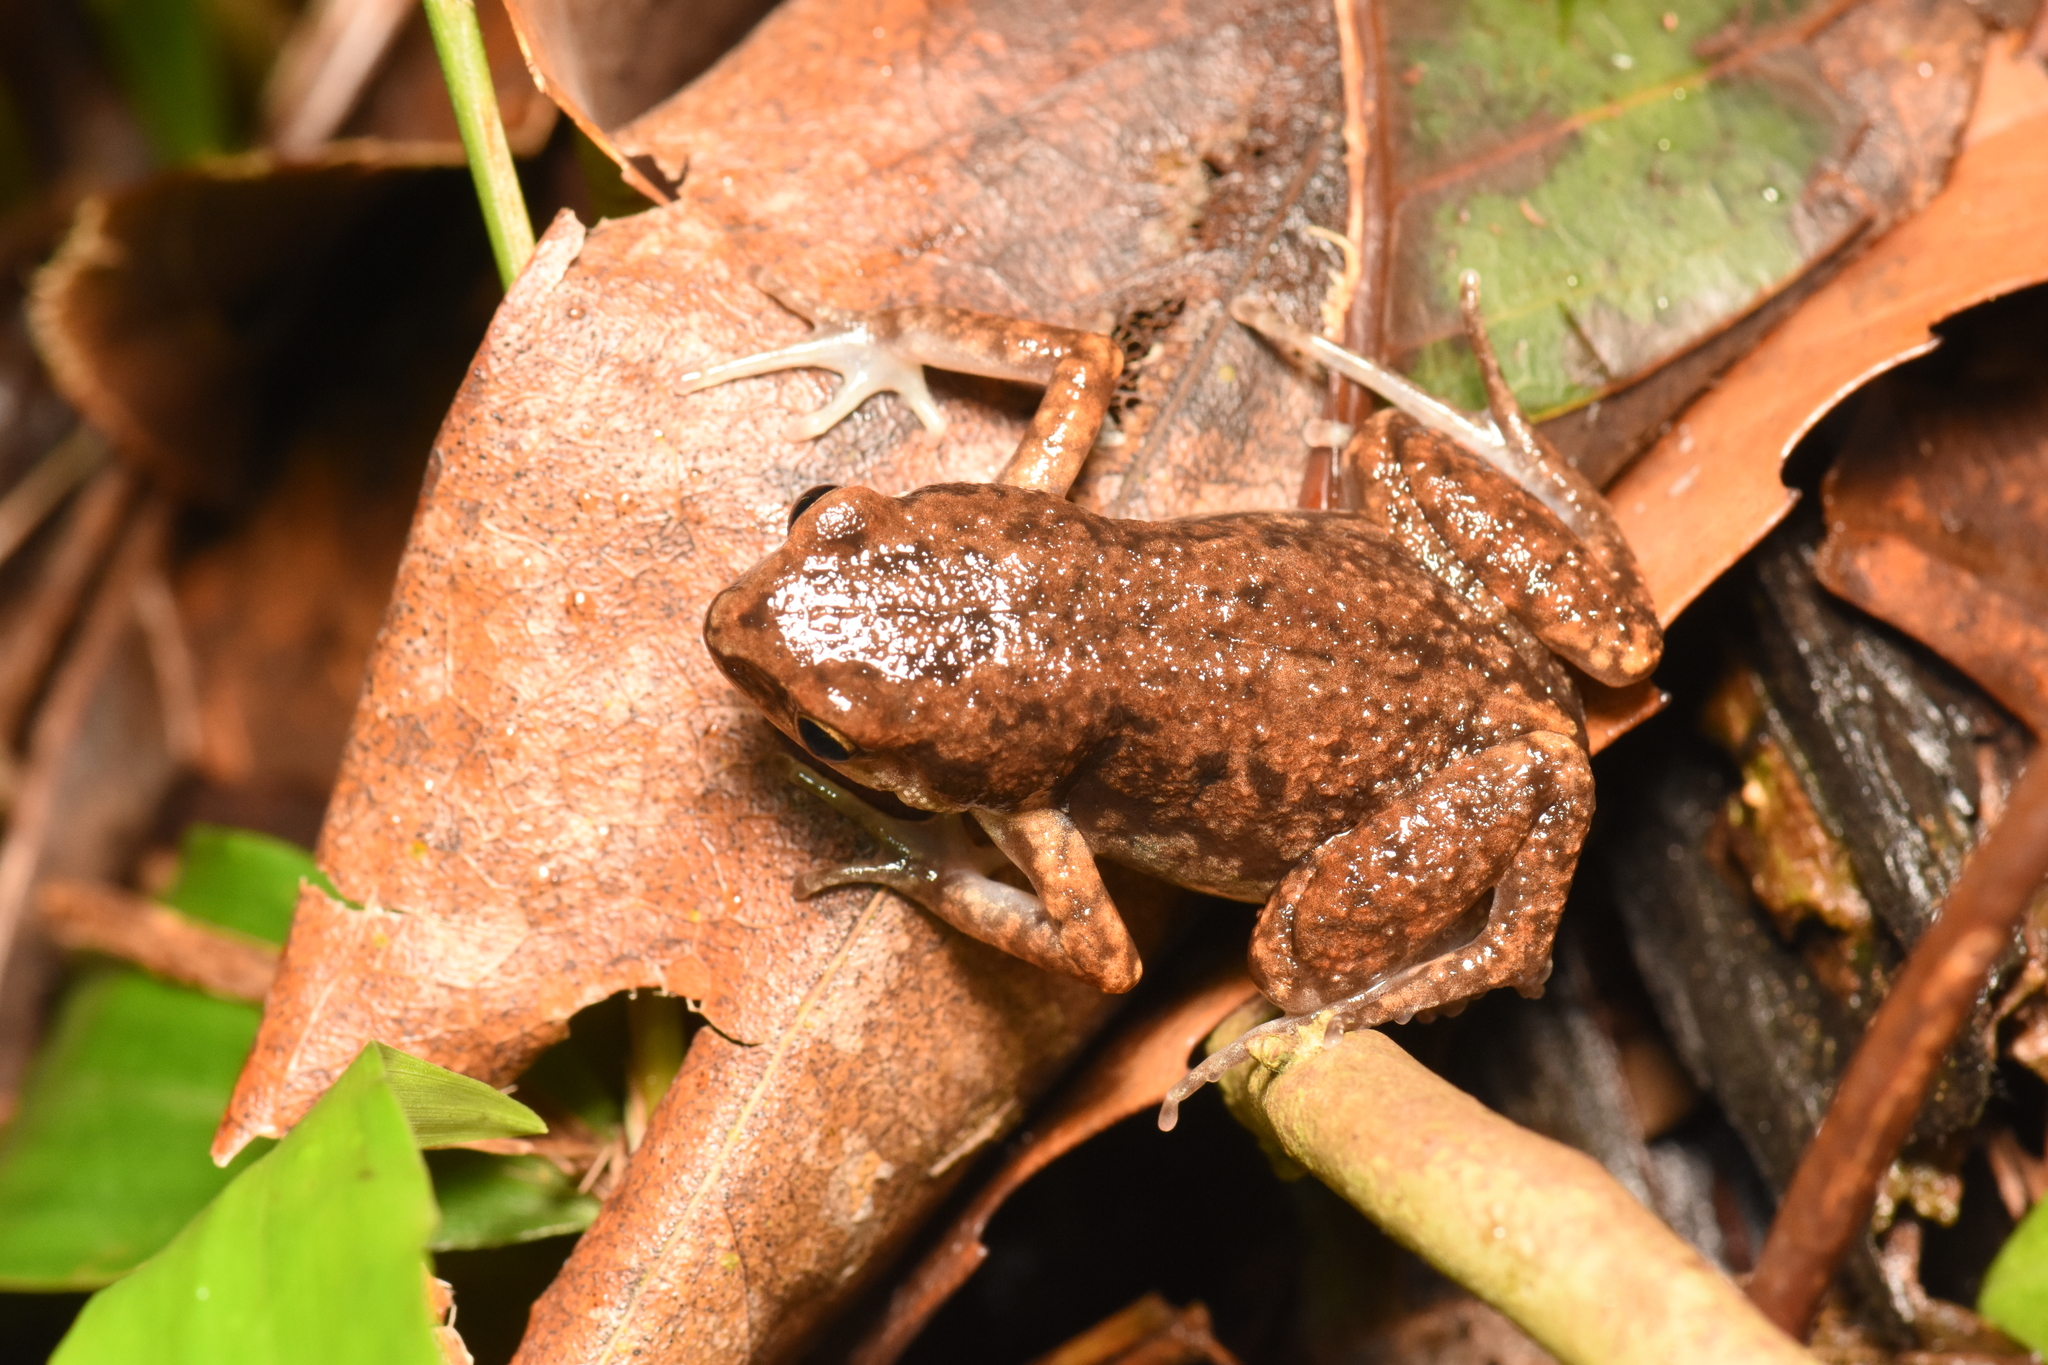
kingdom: Animalia
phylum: Chordata
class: Amphibia
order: Anura
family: Microhylidae
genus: Micryletta
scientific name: Micryletta steinegeri
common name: Stejneger's paddy frog
